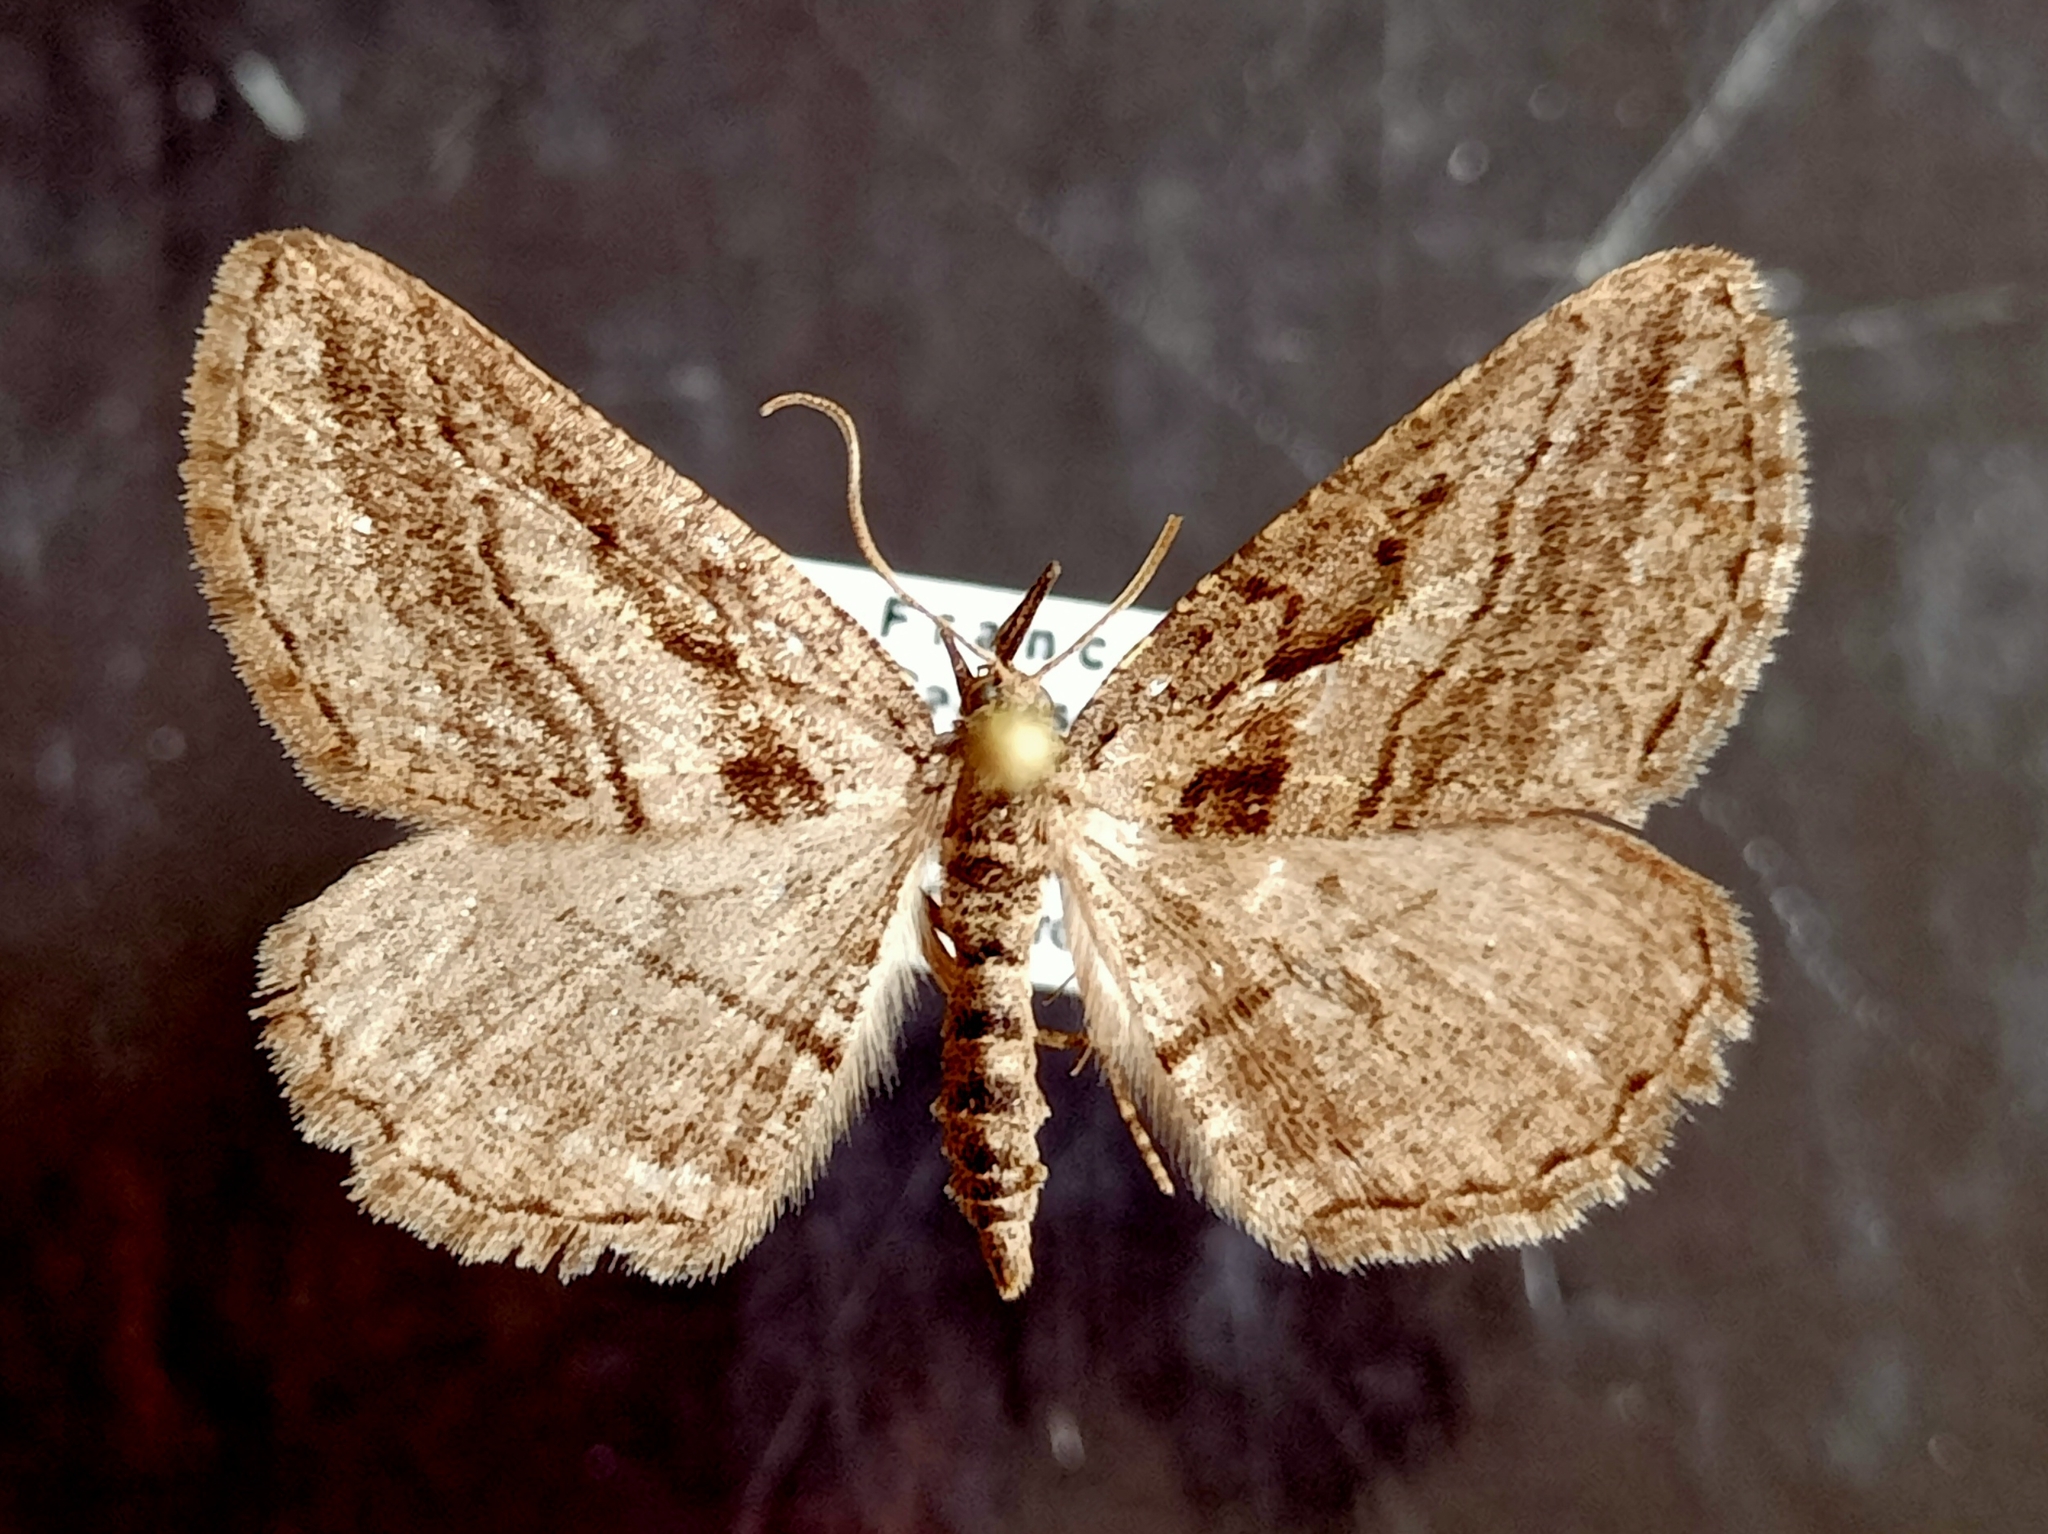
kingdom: Animalia
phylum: Arthropoda
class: Insecta
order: Lepidoptera
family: Geometridae
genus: Rhoptria
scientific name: Rhoptria asperaria
